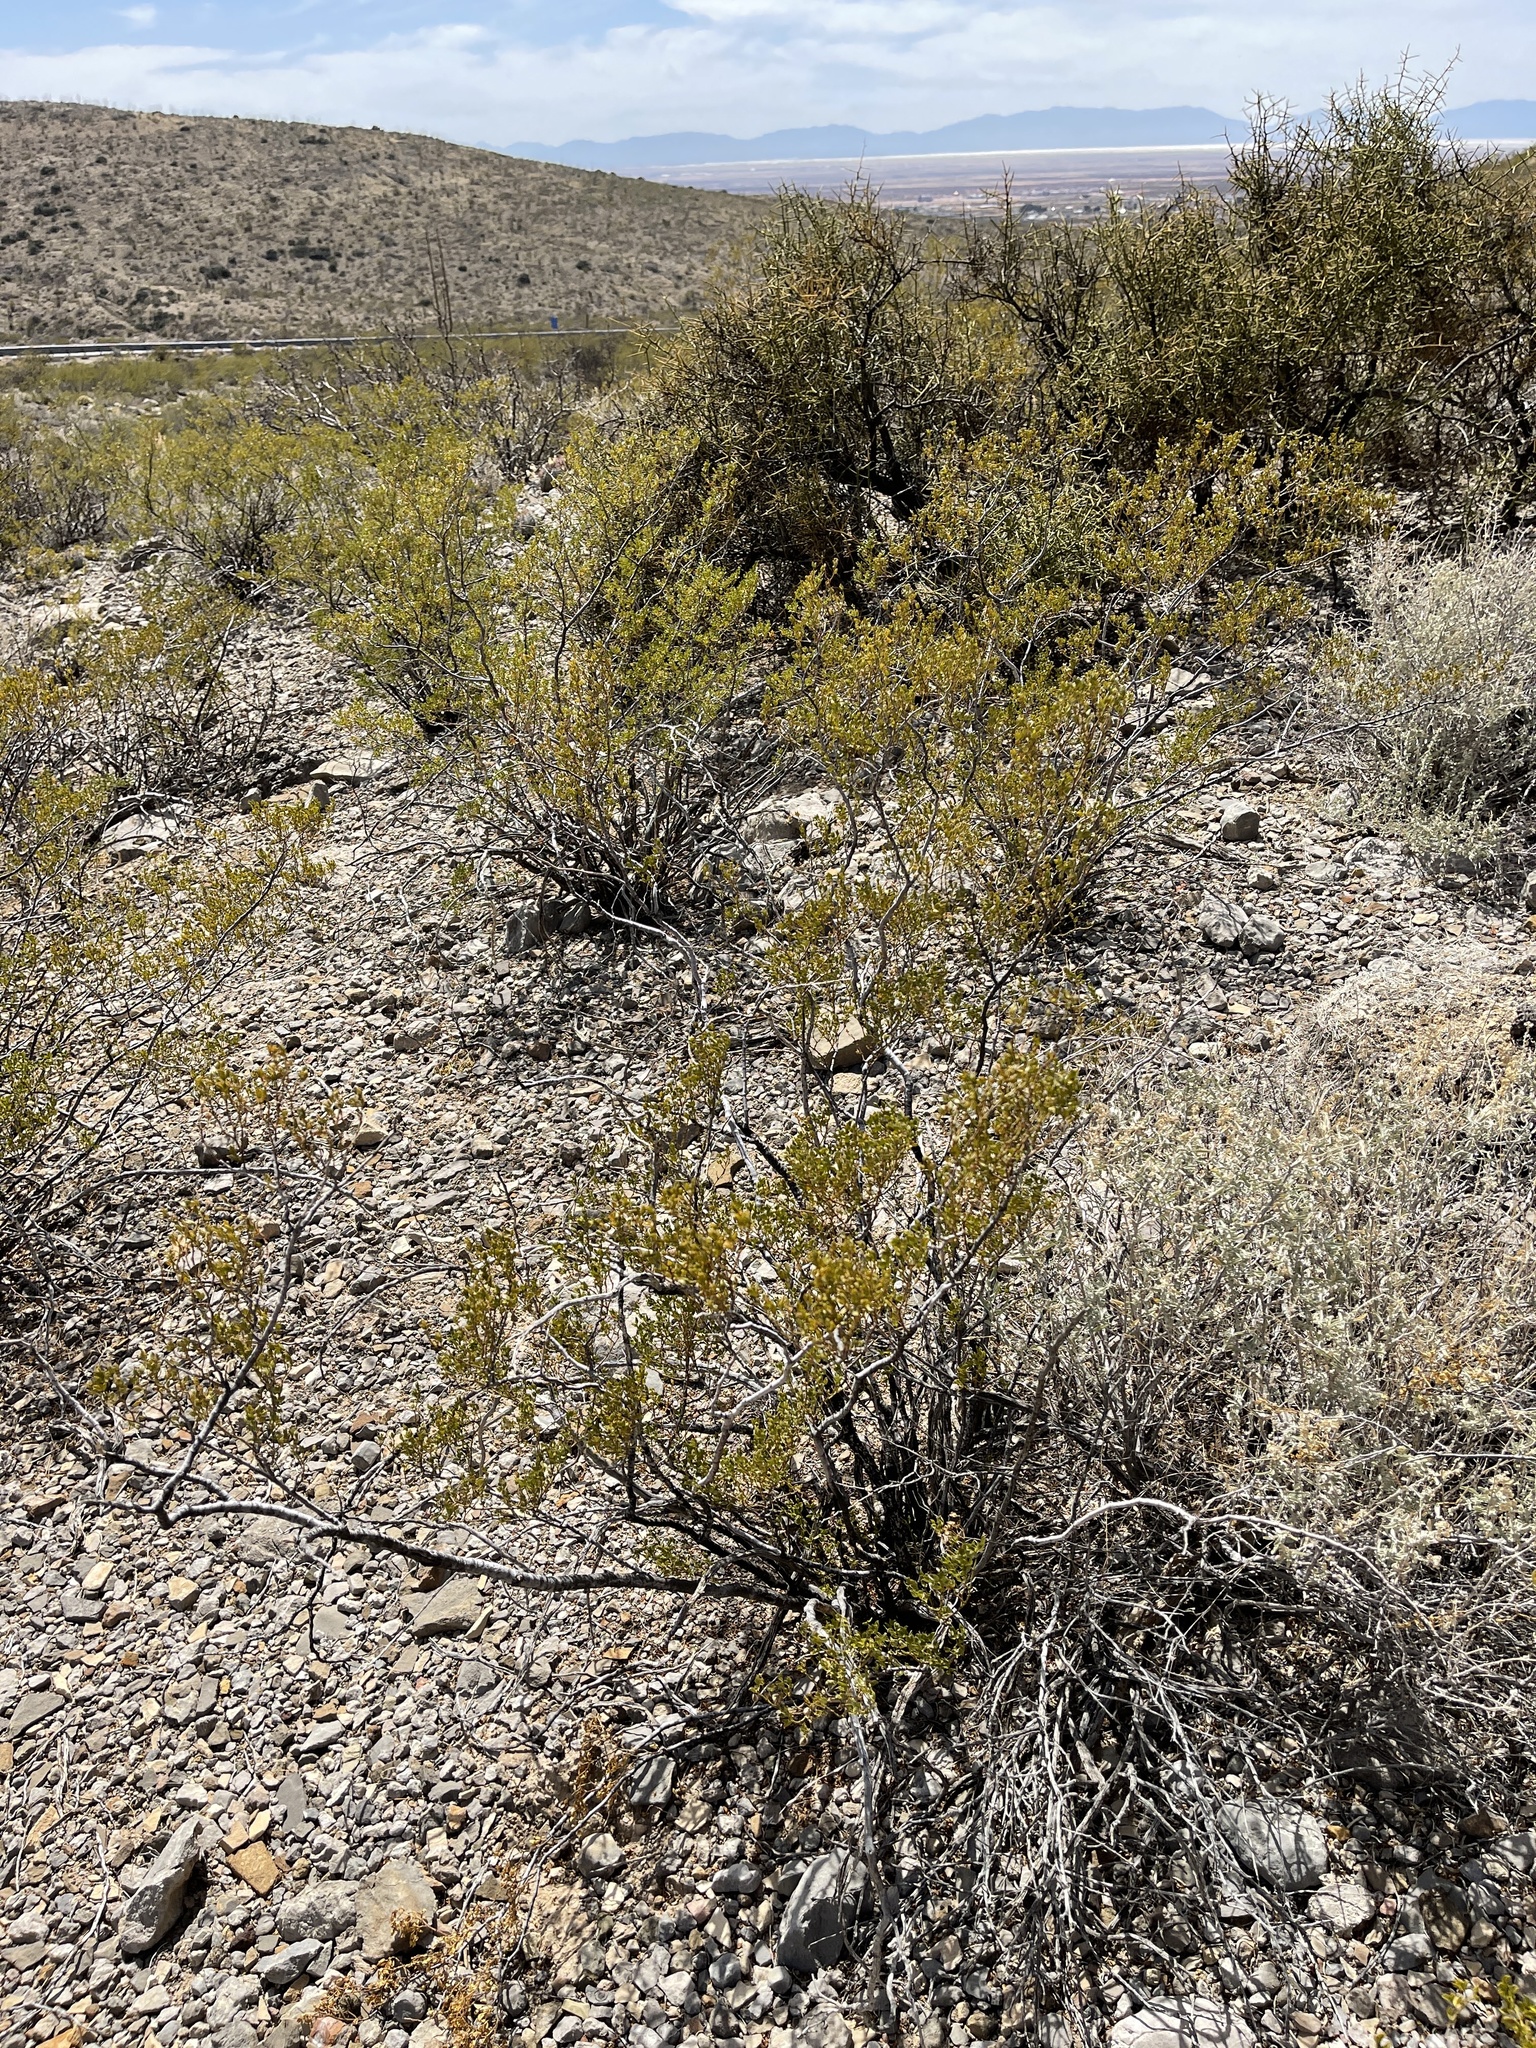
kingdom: Plantae
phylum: Tracheophyta
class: Magnoliopsida
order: Zygophyllales
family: Zygophyllaceae
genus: Larrea
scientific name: Larrea tridentata
